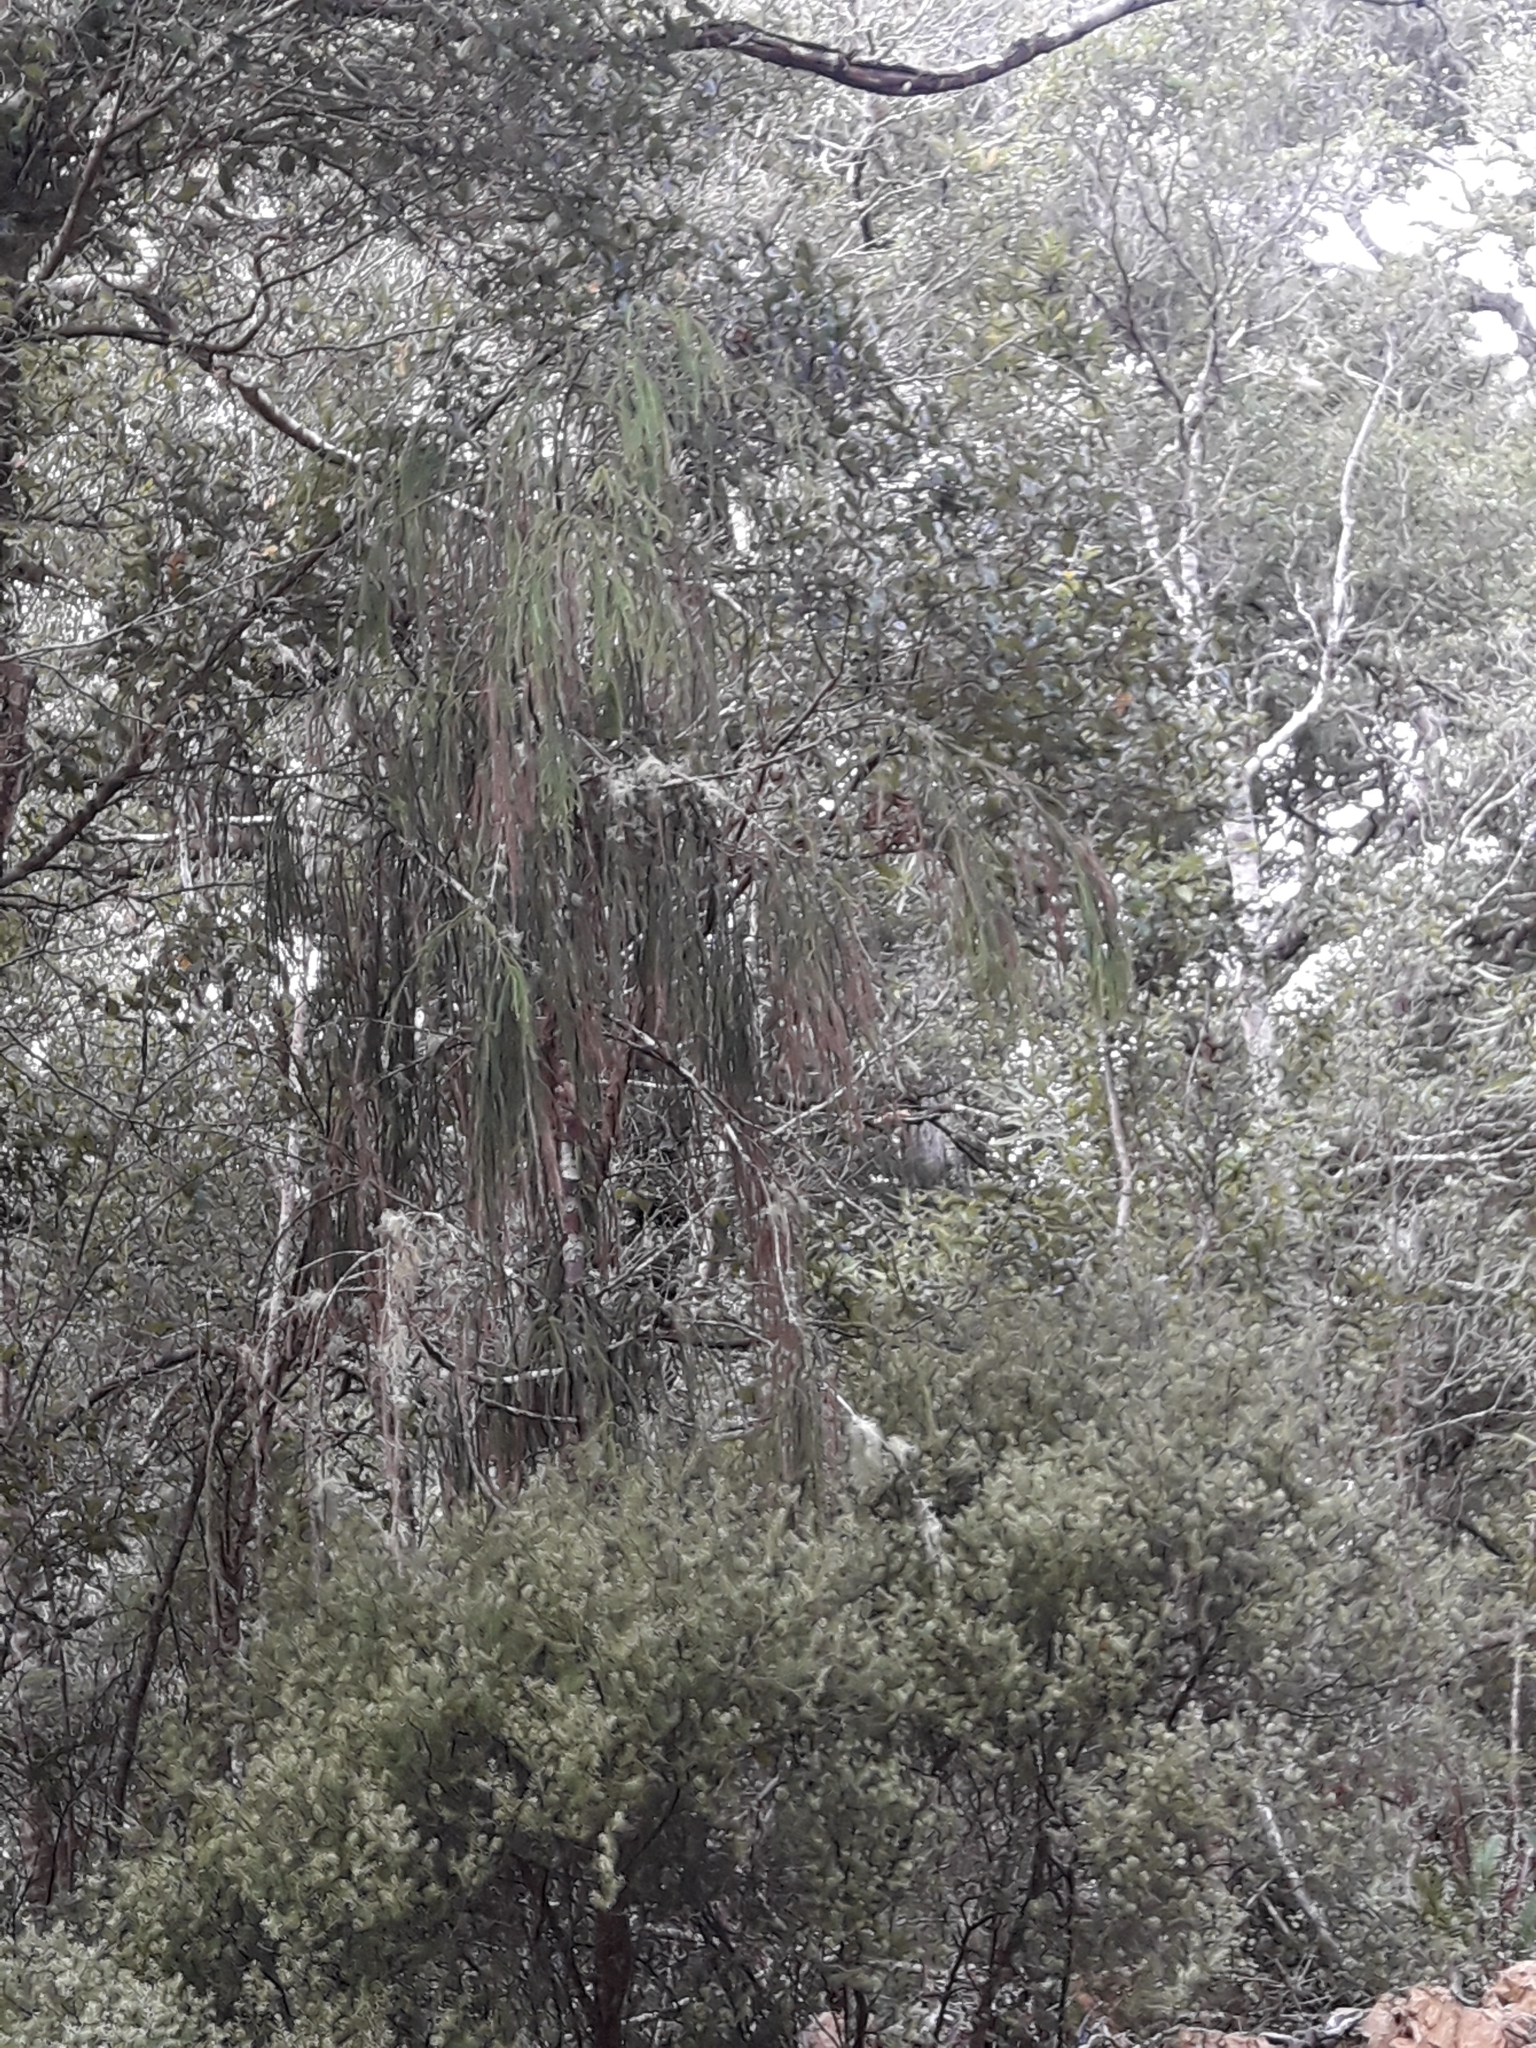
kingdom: Plantae
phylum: Tracheophyta
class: Pinopsida
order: Pinales
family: Podocarpaceae
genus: Dacrydium
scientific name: Dacrydium cupressinum
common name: Red pine
